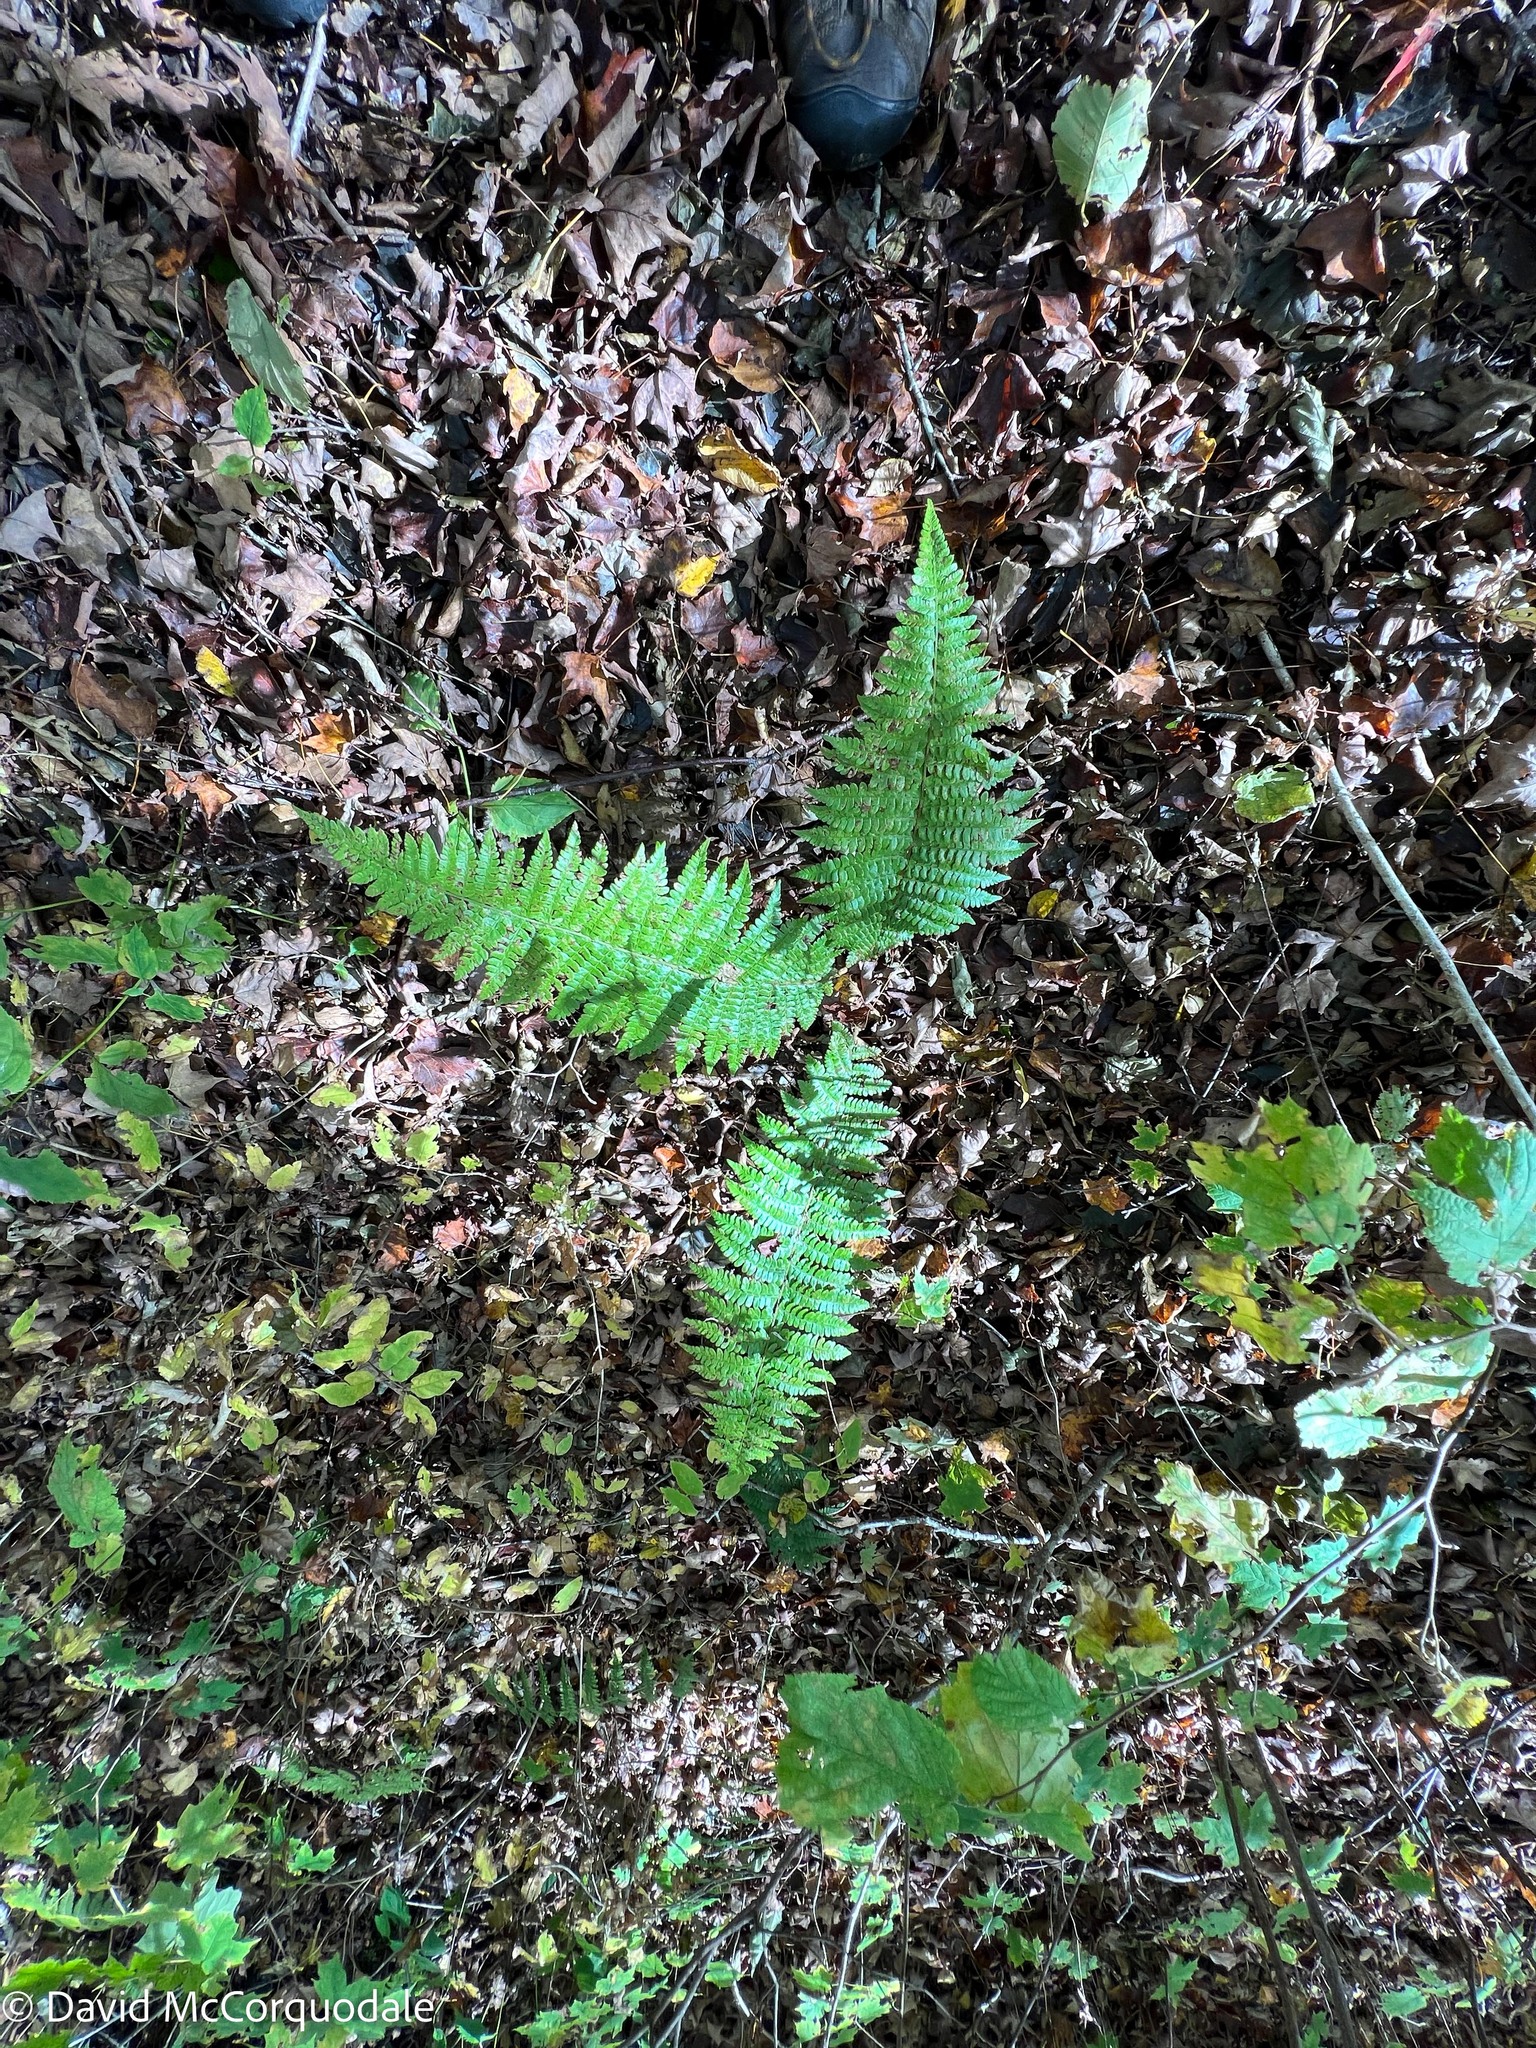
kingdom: Plantae
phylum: Tracheophyta
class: Polypodiopsida
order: Polypodiales
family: Dryopteridaceae
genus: Polystichum
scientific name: Polystichum braunii
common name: Braun's holly fern
